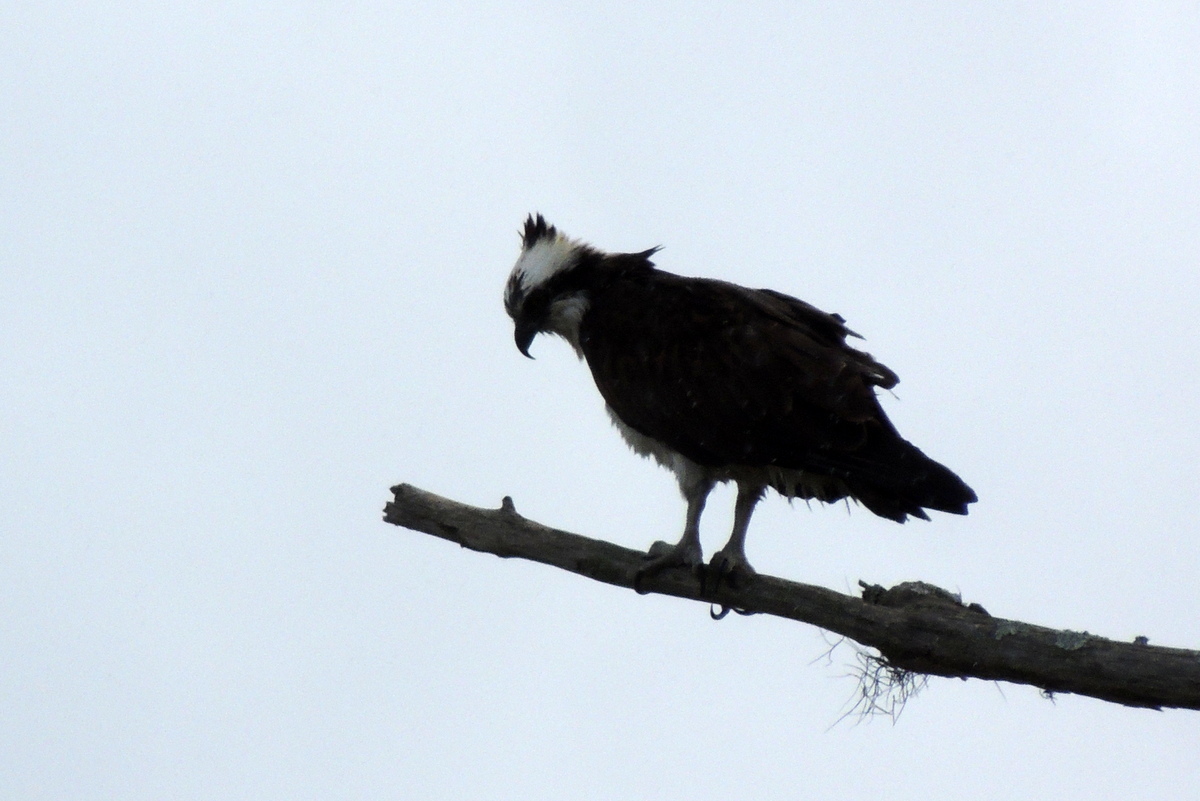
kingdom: Animalia
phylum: Chordata
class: Aves
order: Accipitriformes
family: Pandionidae
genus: Pandion
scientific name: Pandion haliaetus
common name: Osprey
